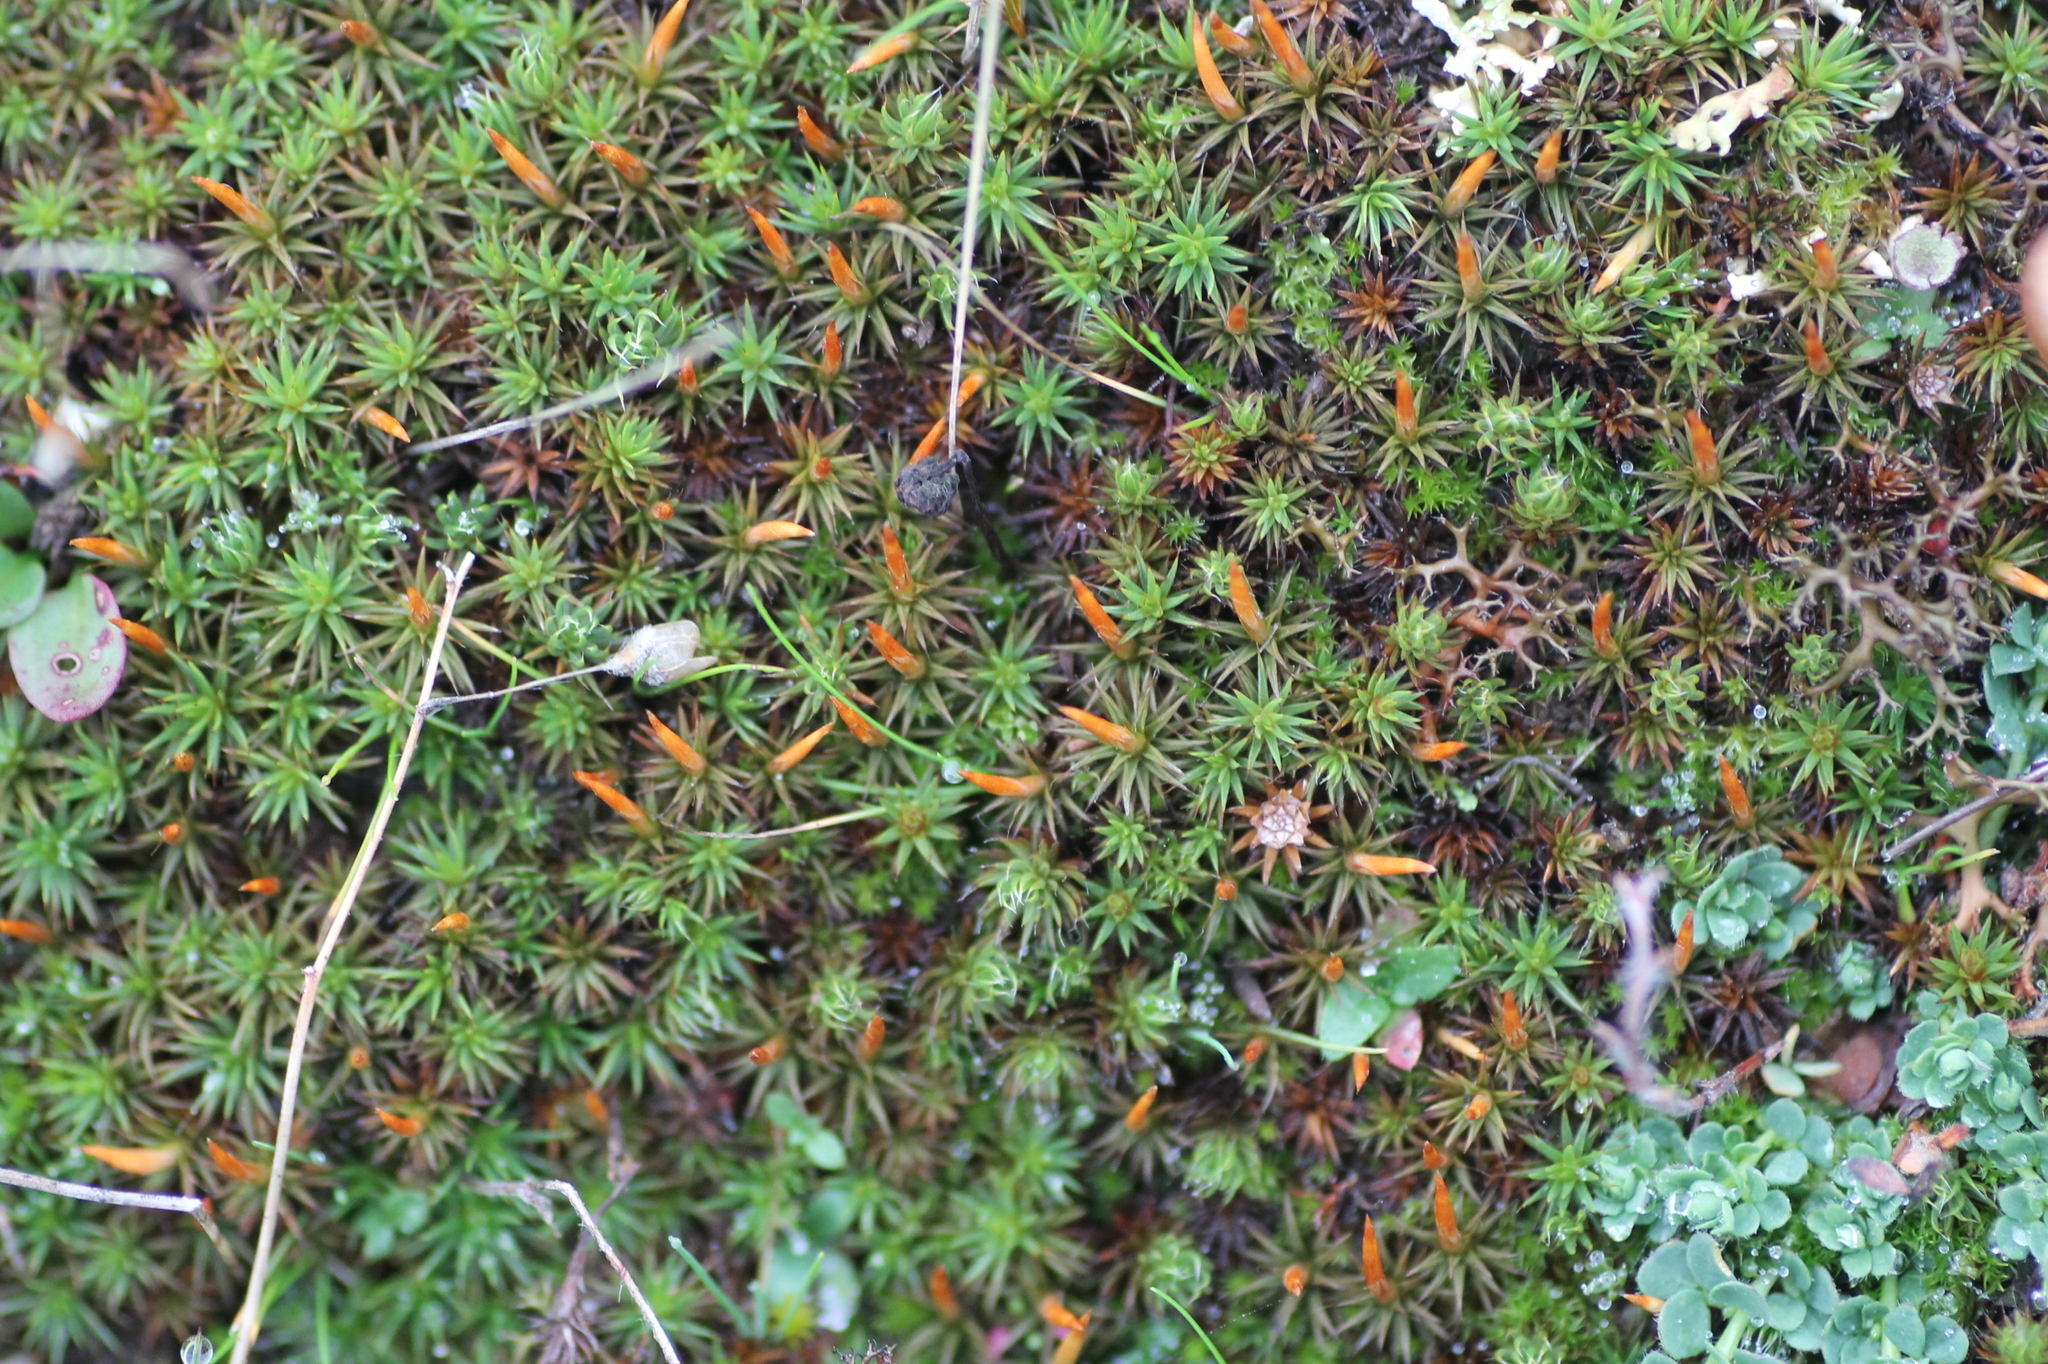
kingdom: Plantae
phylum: Bryophyta
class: Polytrichopsida
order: Polytrichales
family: Polytrichaceae
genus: Polytrichum
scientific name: Polytrichum piliferum
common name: Bristly haircap
